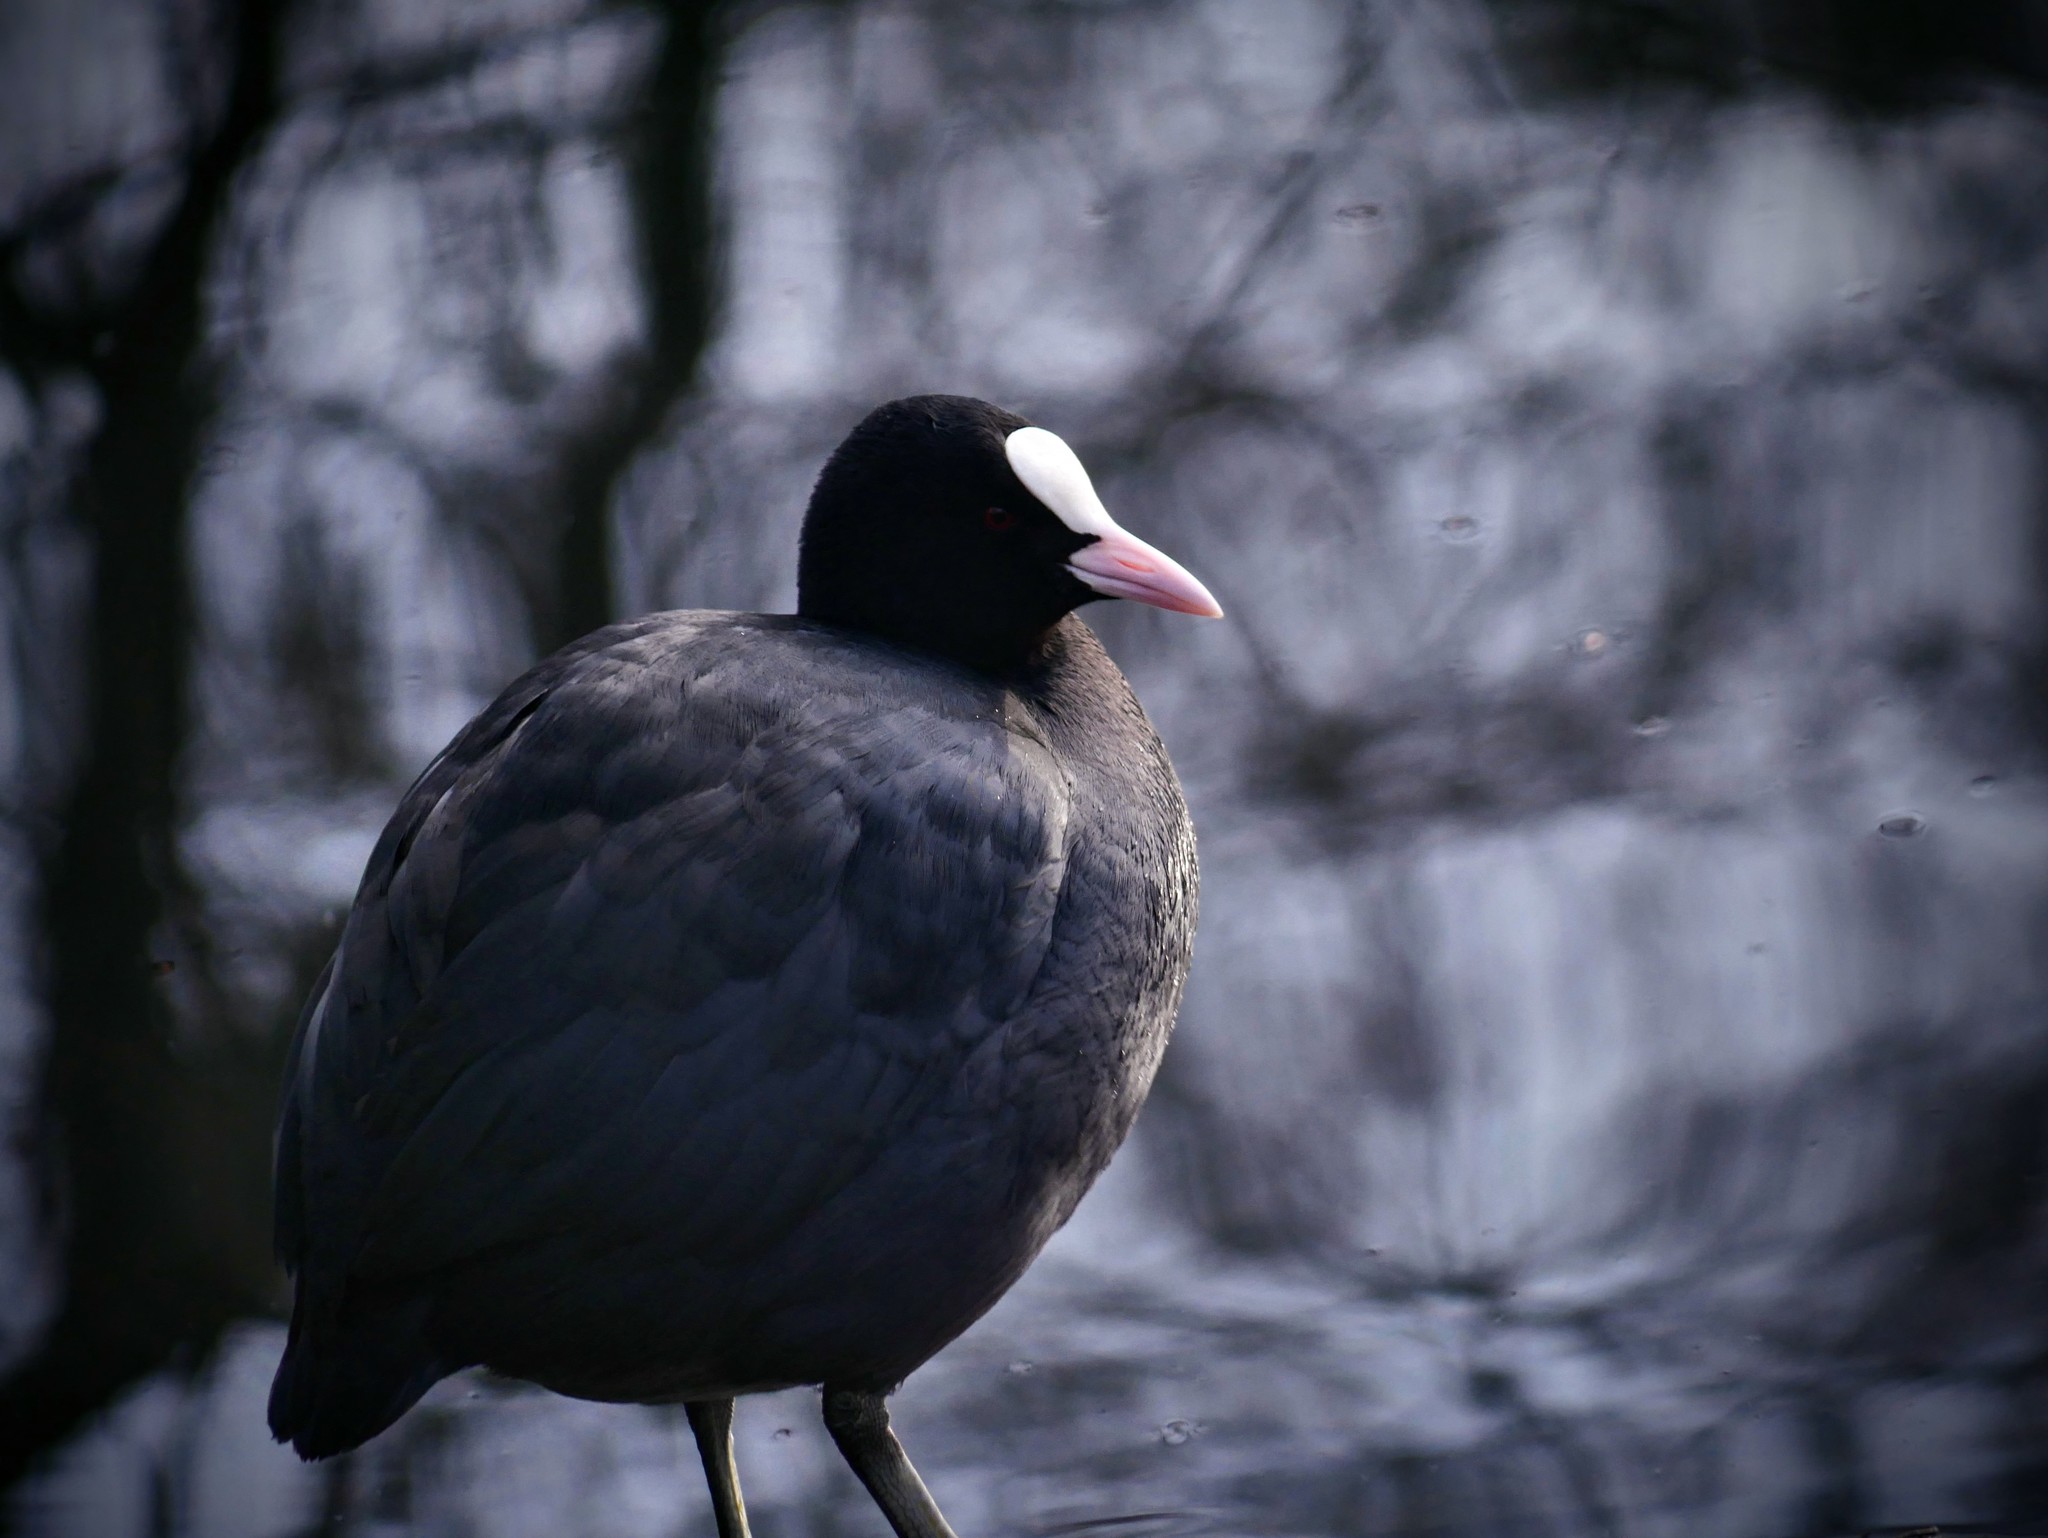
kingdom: Animalia
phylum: Chordata
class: Aves
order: Gruiformes
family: Rallidae
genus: Fulica
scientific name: Fulica atra
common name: Eurasian coot
